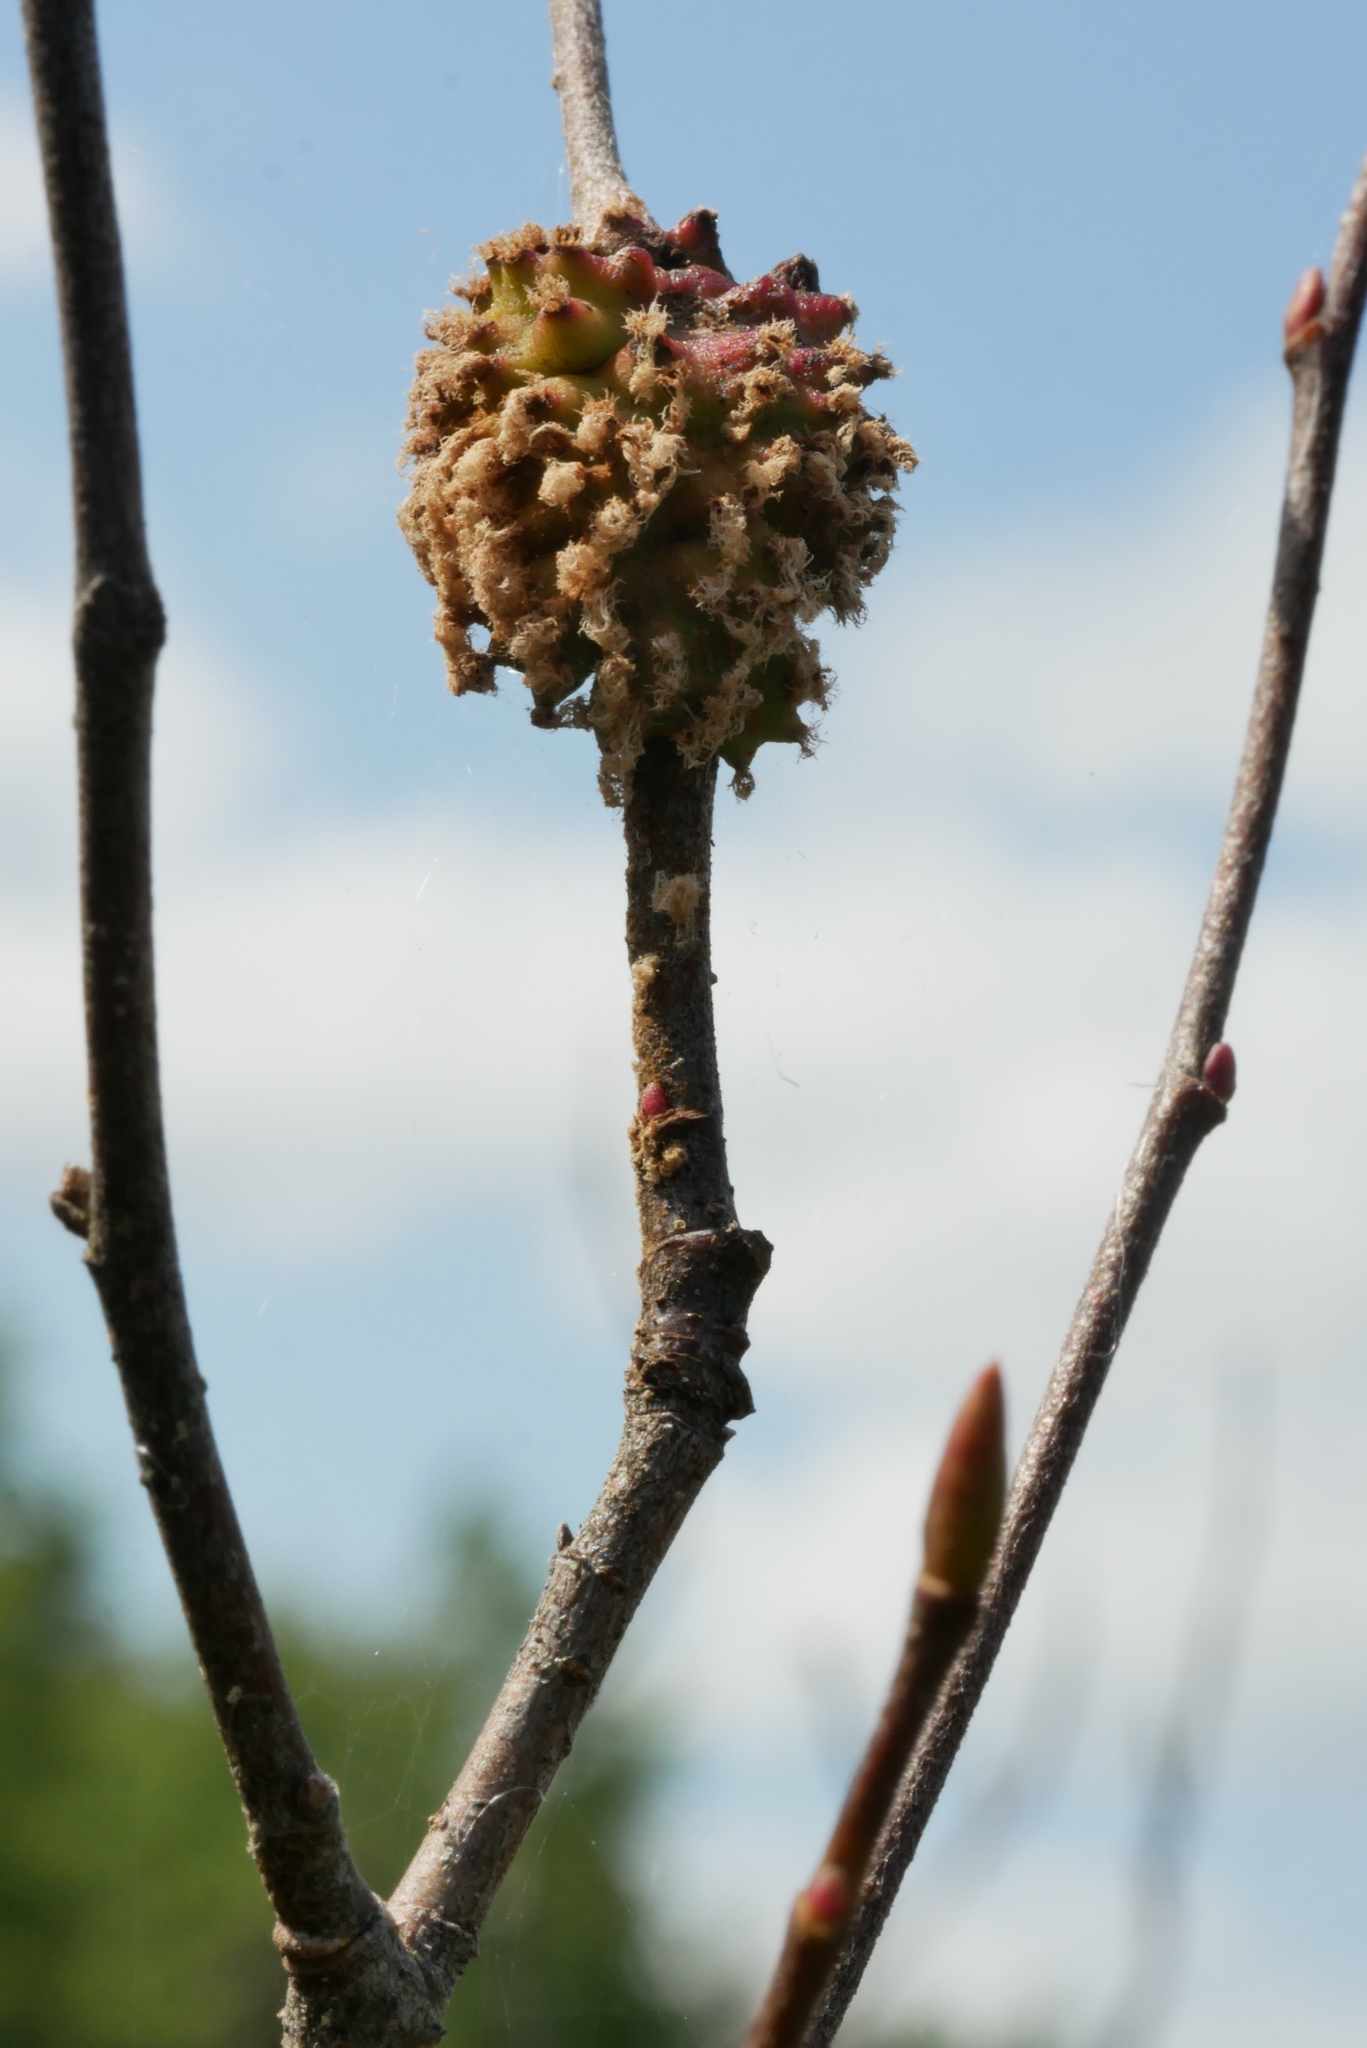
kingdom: Fungi
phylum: Basidiomycota
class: Pucciniomycetes
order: Pucciniales
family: Gymnosporangiaceae
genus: Gymnosporangium
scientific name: Gymnosporangium clavipes
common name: Quince rust
